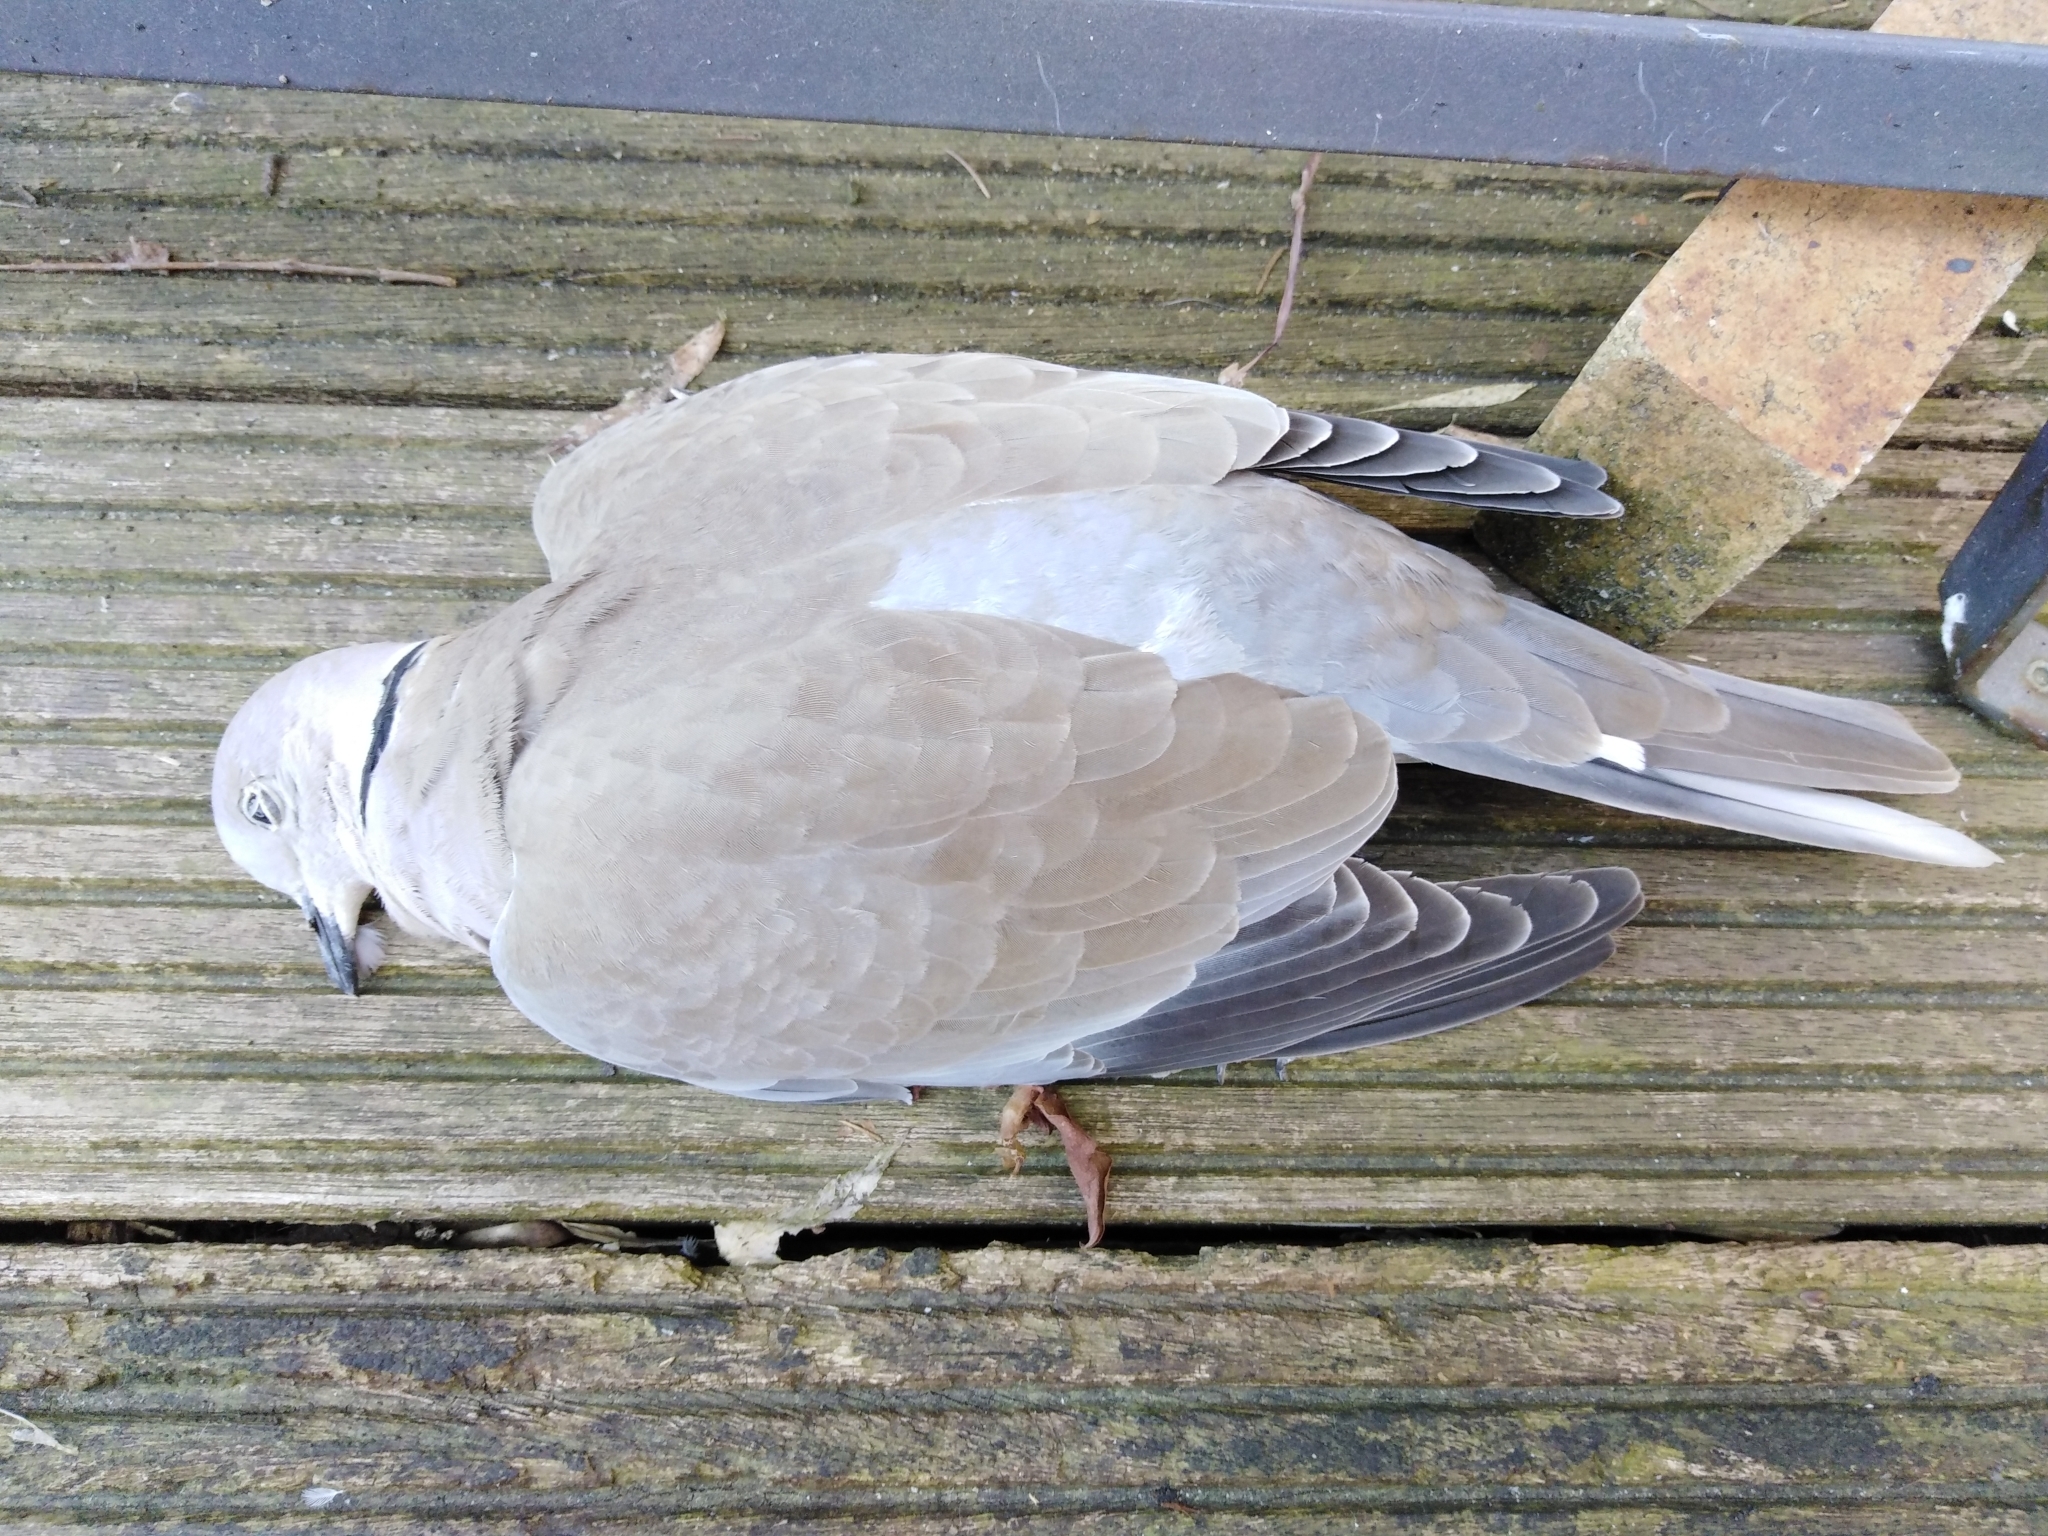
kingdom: Animalia
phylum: Chordata
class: Aves
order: Columbiformes
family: Columbidae
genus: Streptopelia
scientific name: Streptopelia decaocto
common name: Eurasian collared dove
